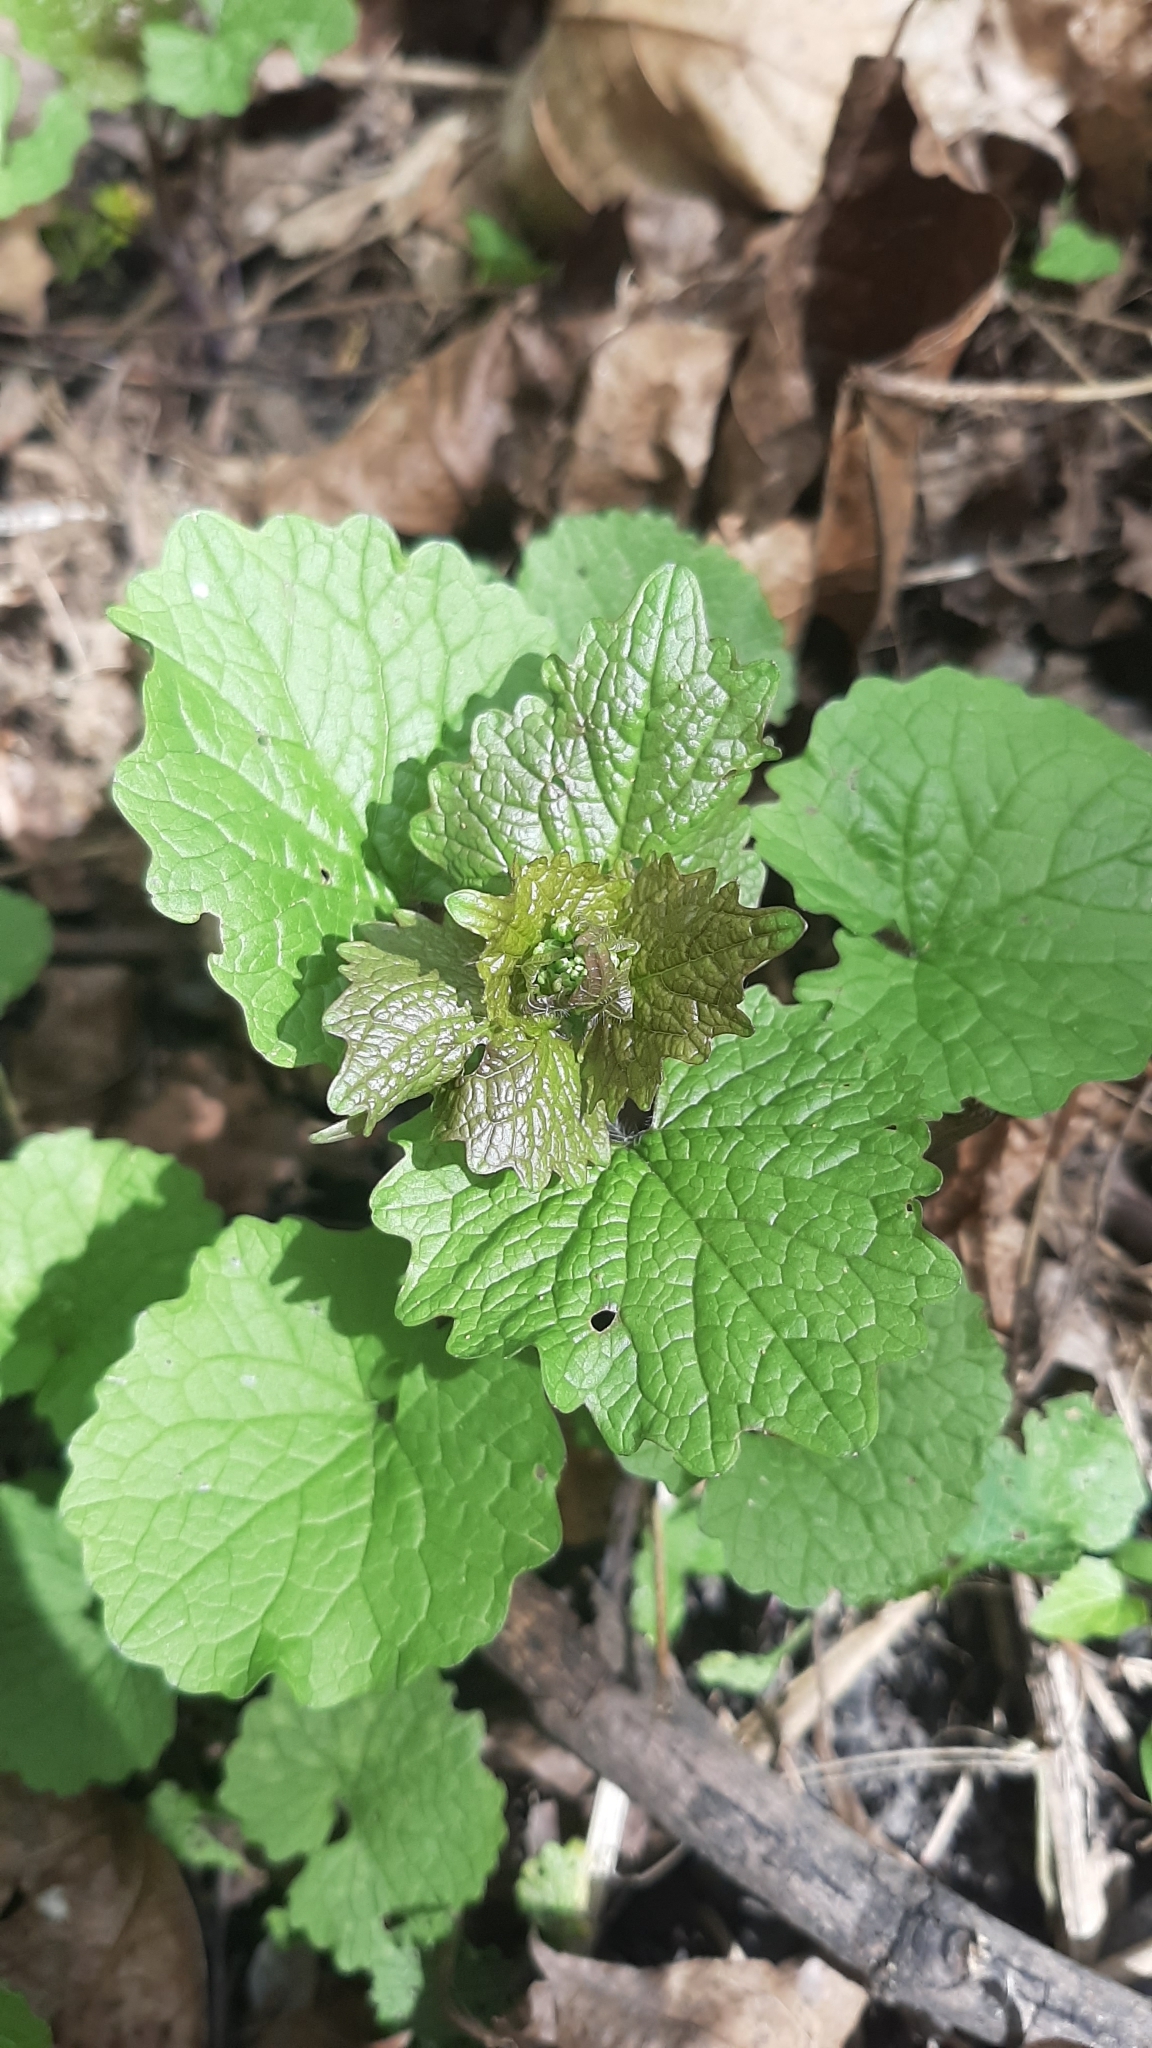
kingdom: Plantae
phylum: Tracheophyta
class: Magnoliopsida
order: Brassicales
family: Brassicaceae
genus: Alliaria
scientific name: Alliaria petiolata
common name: Garlic mustard
